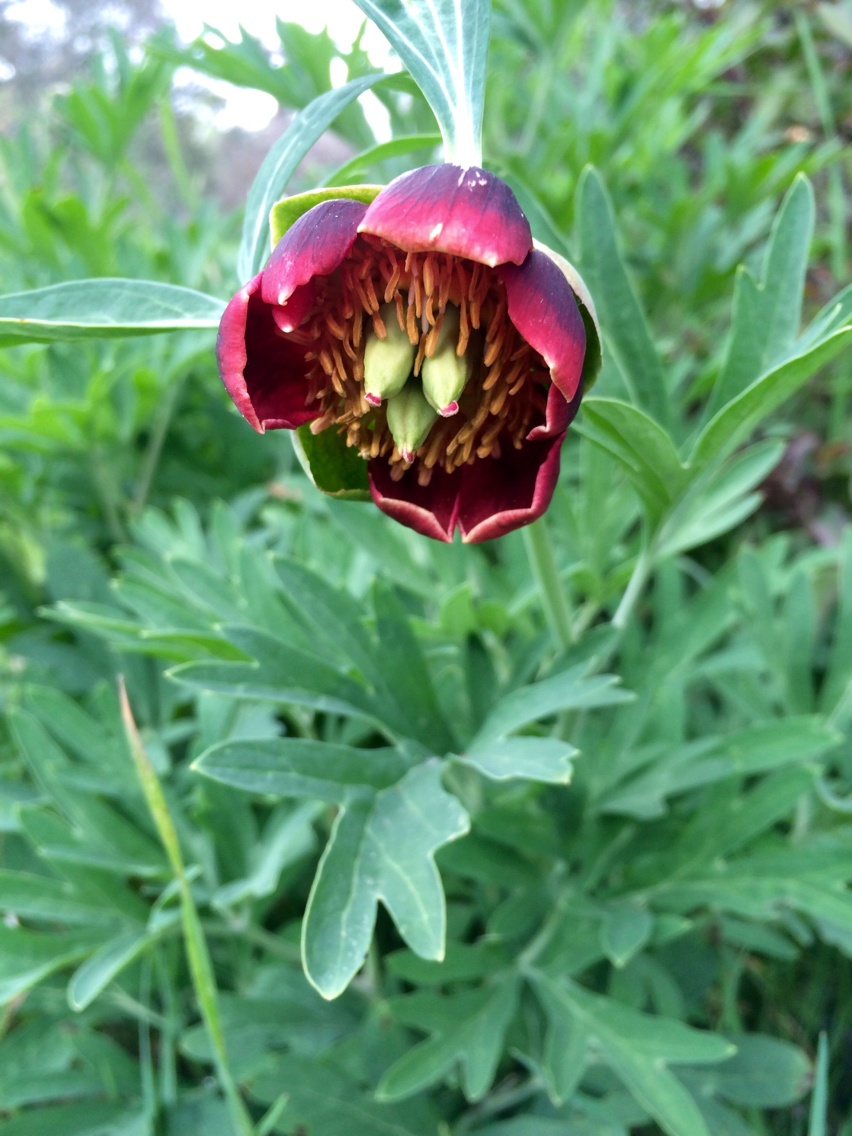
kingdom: Plantae
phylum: Tracheophyta
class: Magnoliopsida
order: Saxifragales
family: Paeoniaceae
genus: Paeonia
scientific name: Paeonia californica
